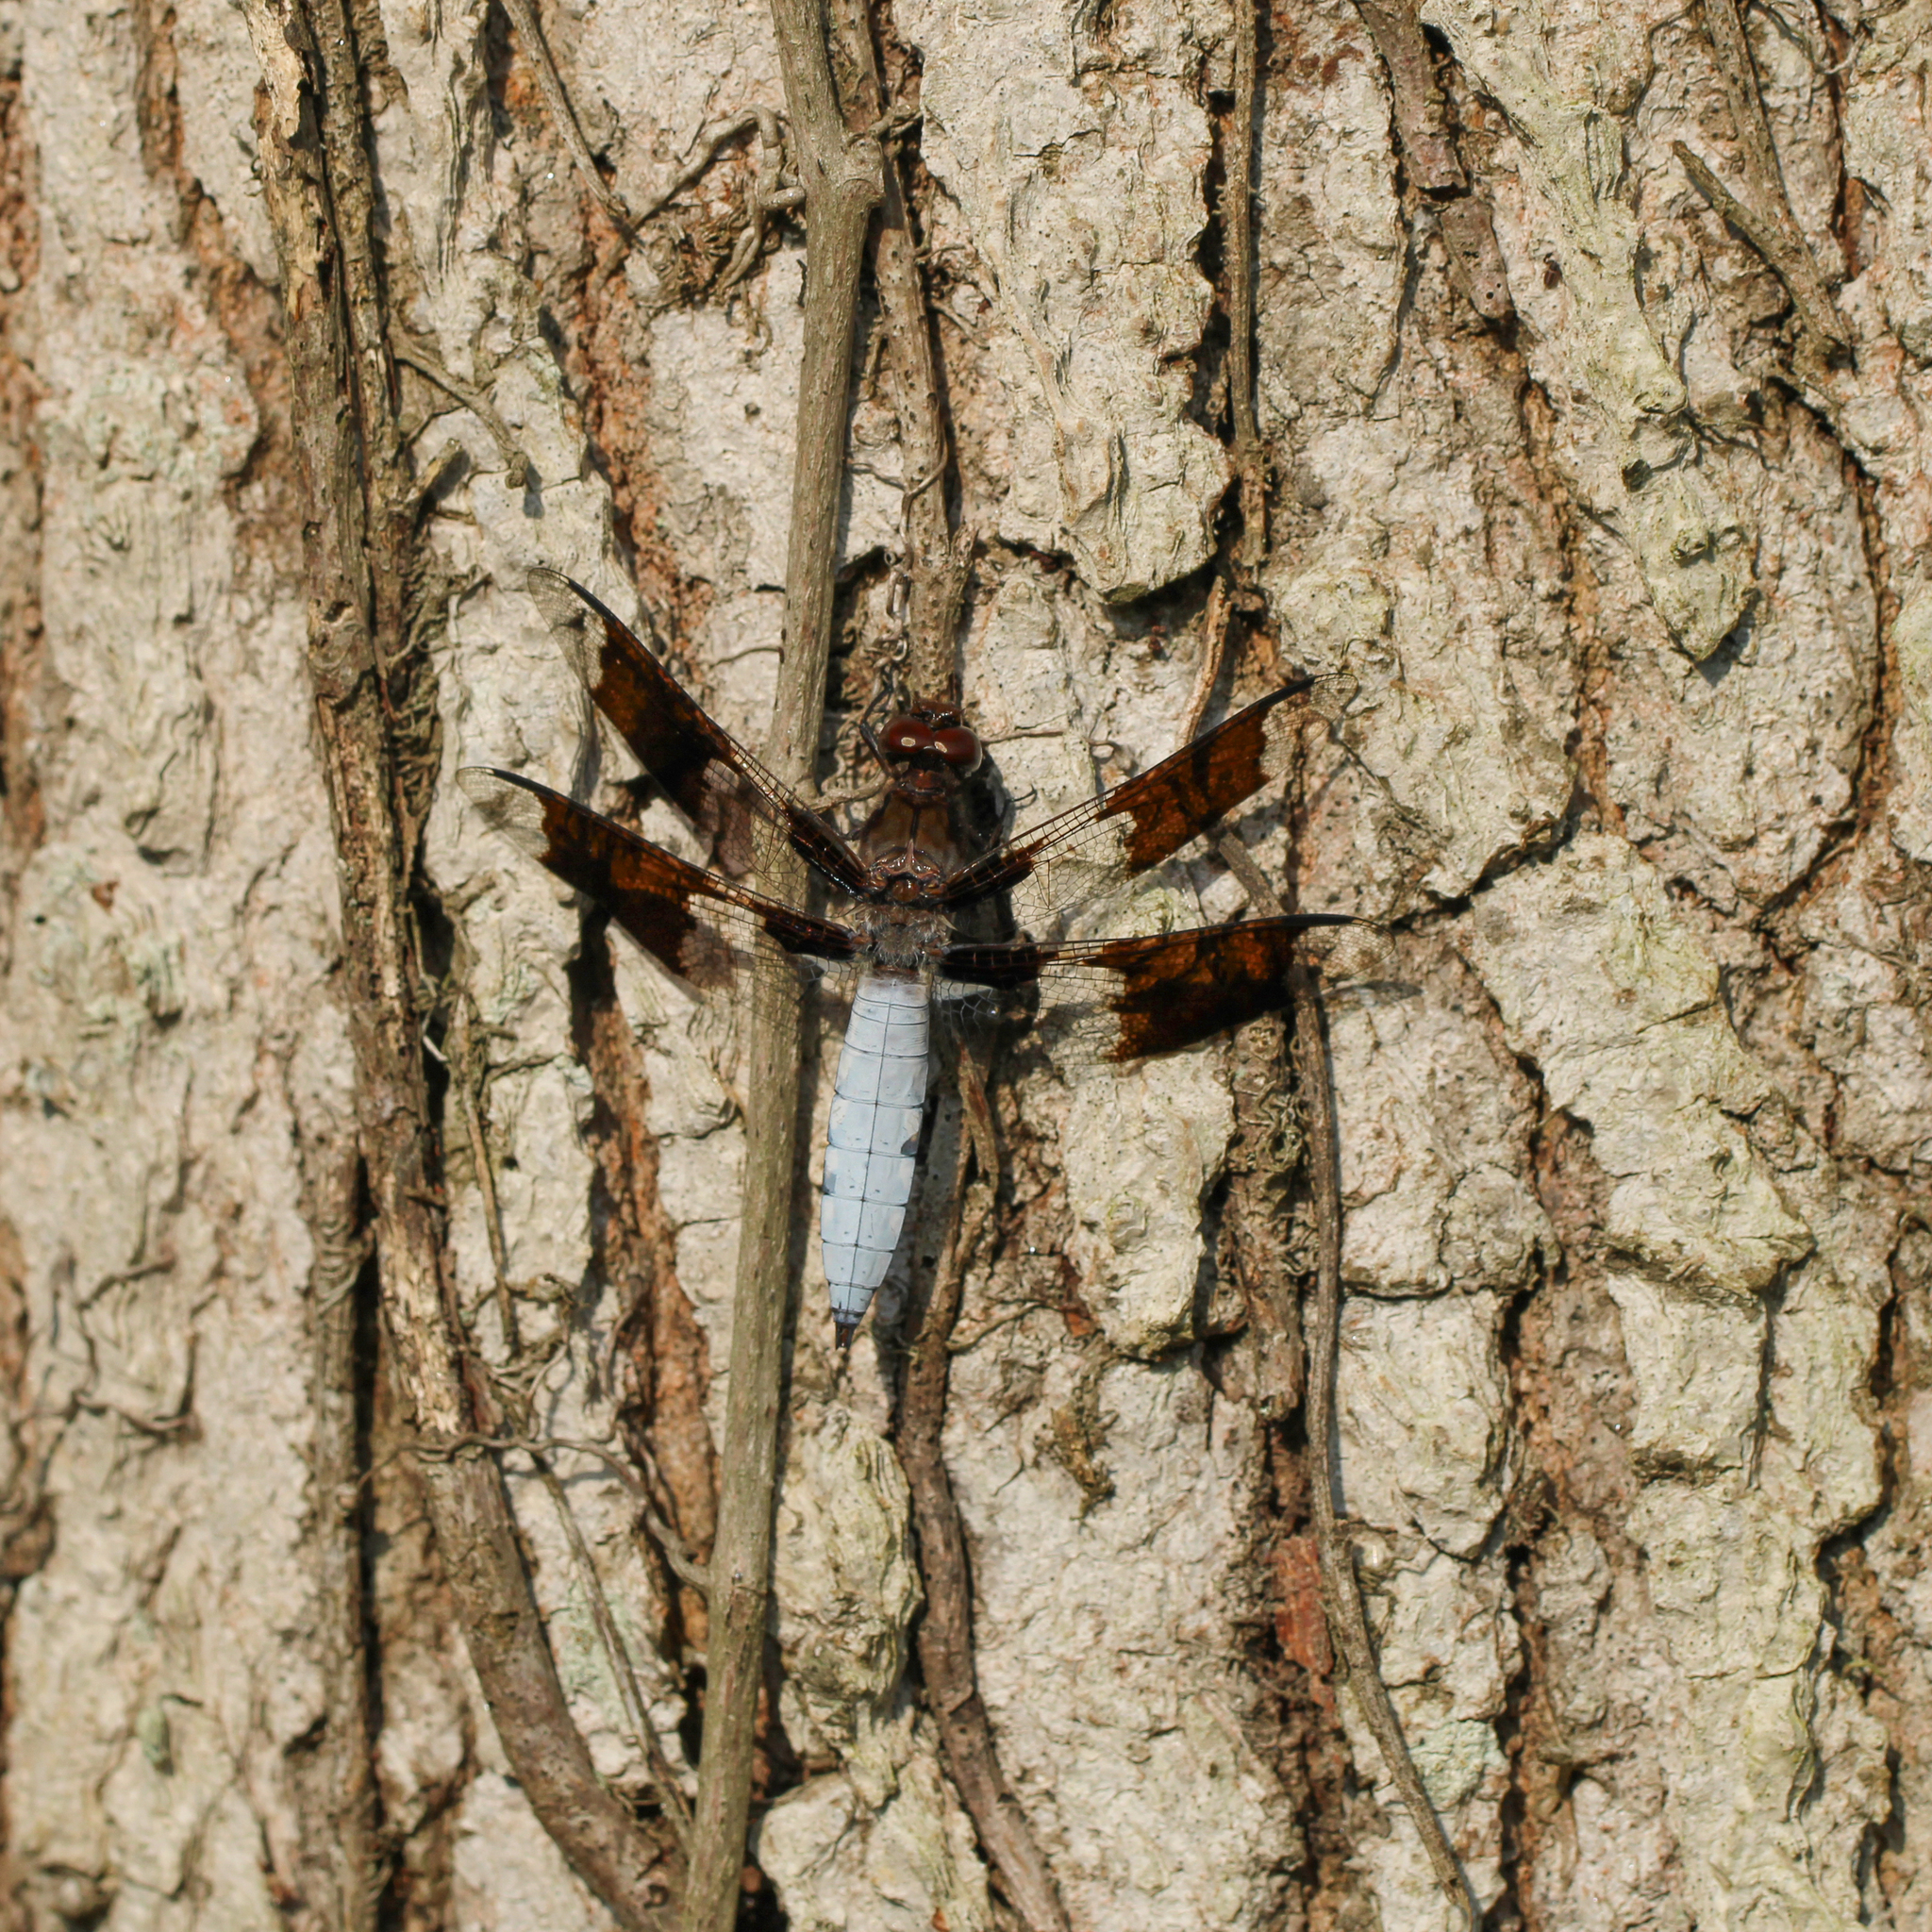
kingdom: Animalia
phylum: Arthropoda
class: Insecta
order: Odonata
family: Libellulidae
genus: Plathemis
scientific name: Plathemis lydia
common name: Common whitetail
